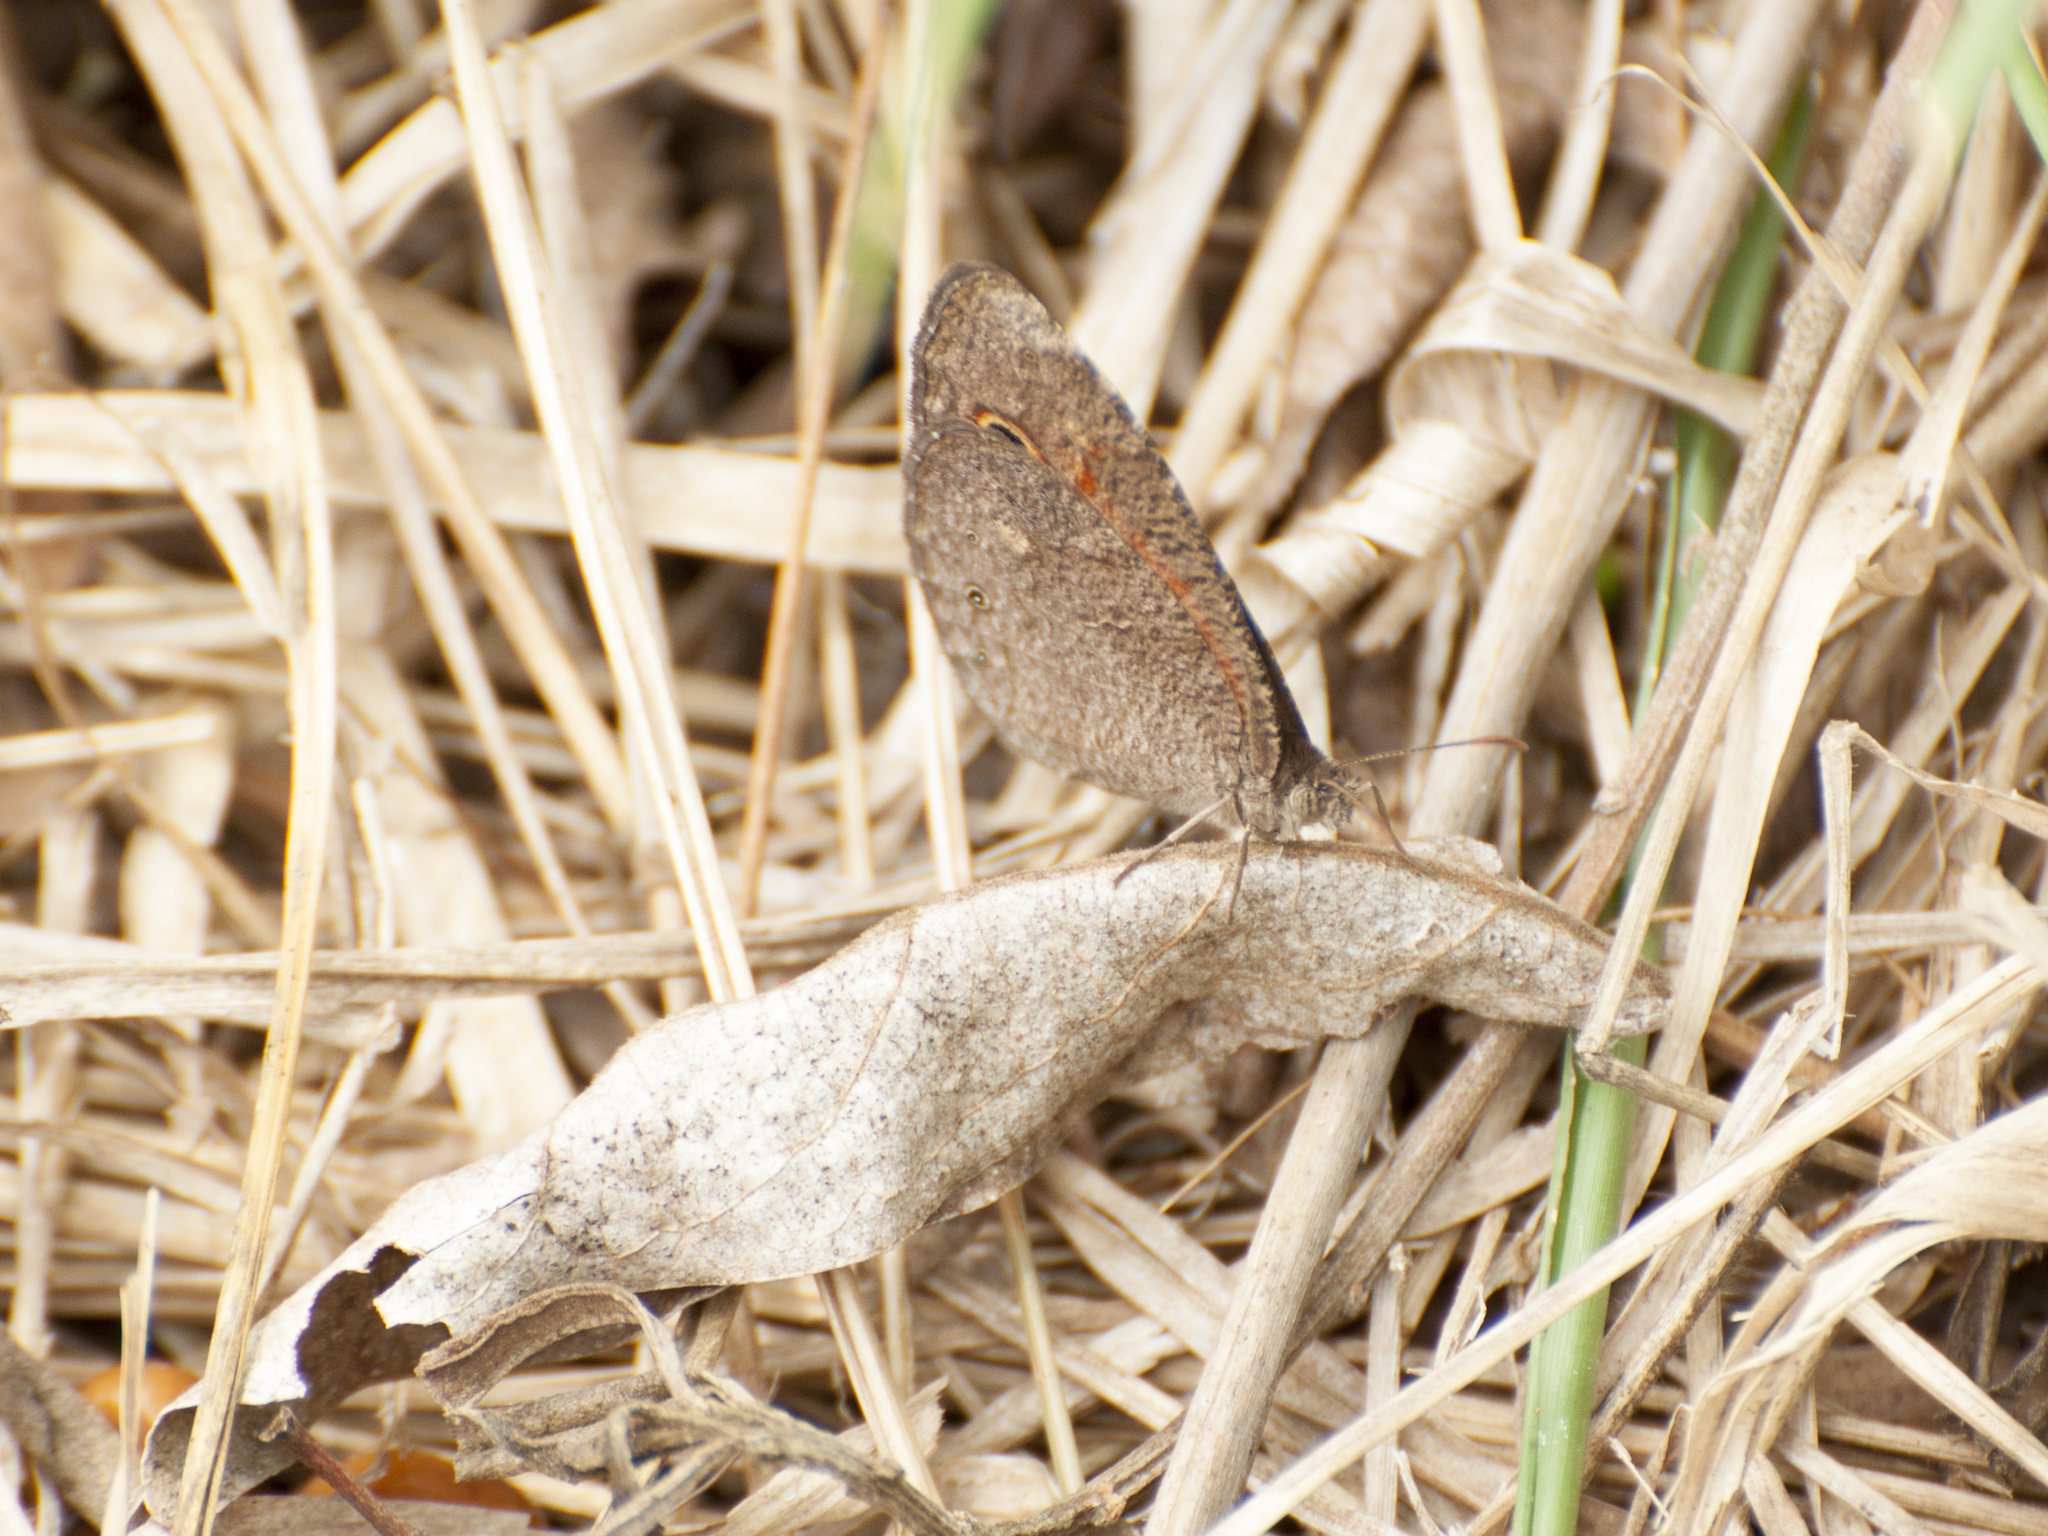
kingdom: Animalia
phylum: Arthropoda
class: Insecta
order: Lepidoptera
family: Nymphalidae
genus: Heteropsis
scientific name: Heteropsis ankaratra
